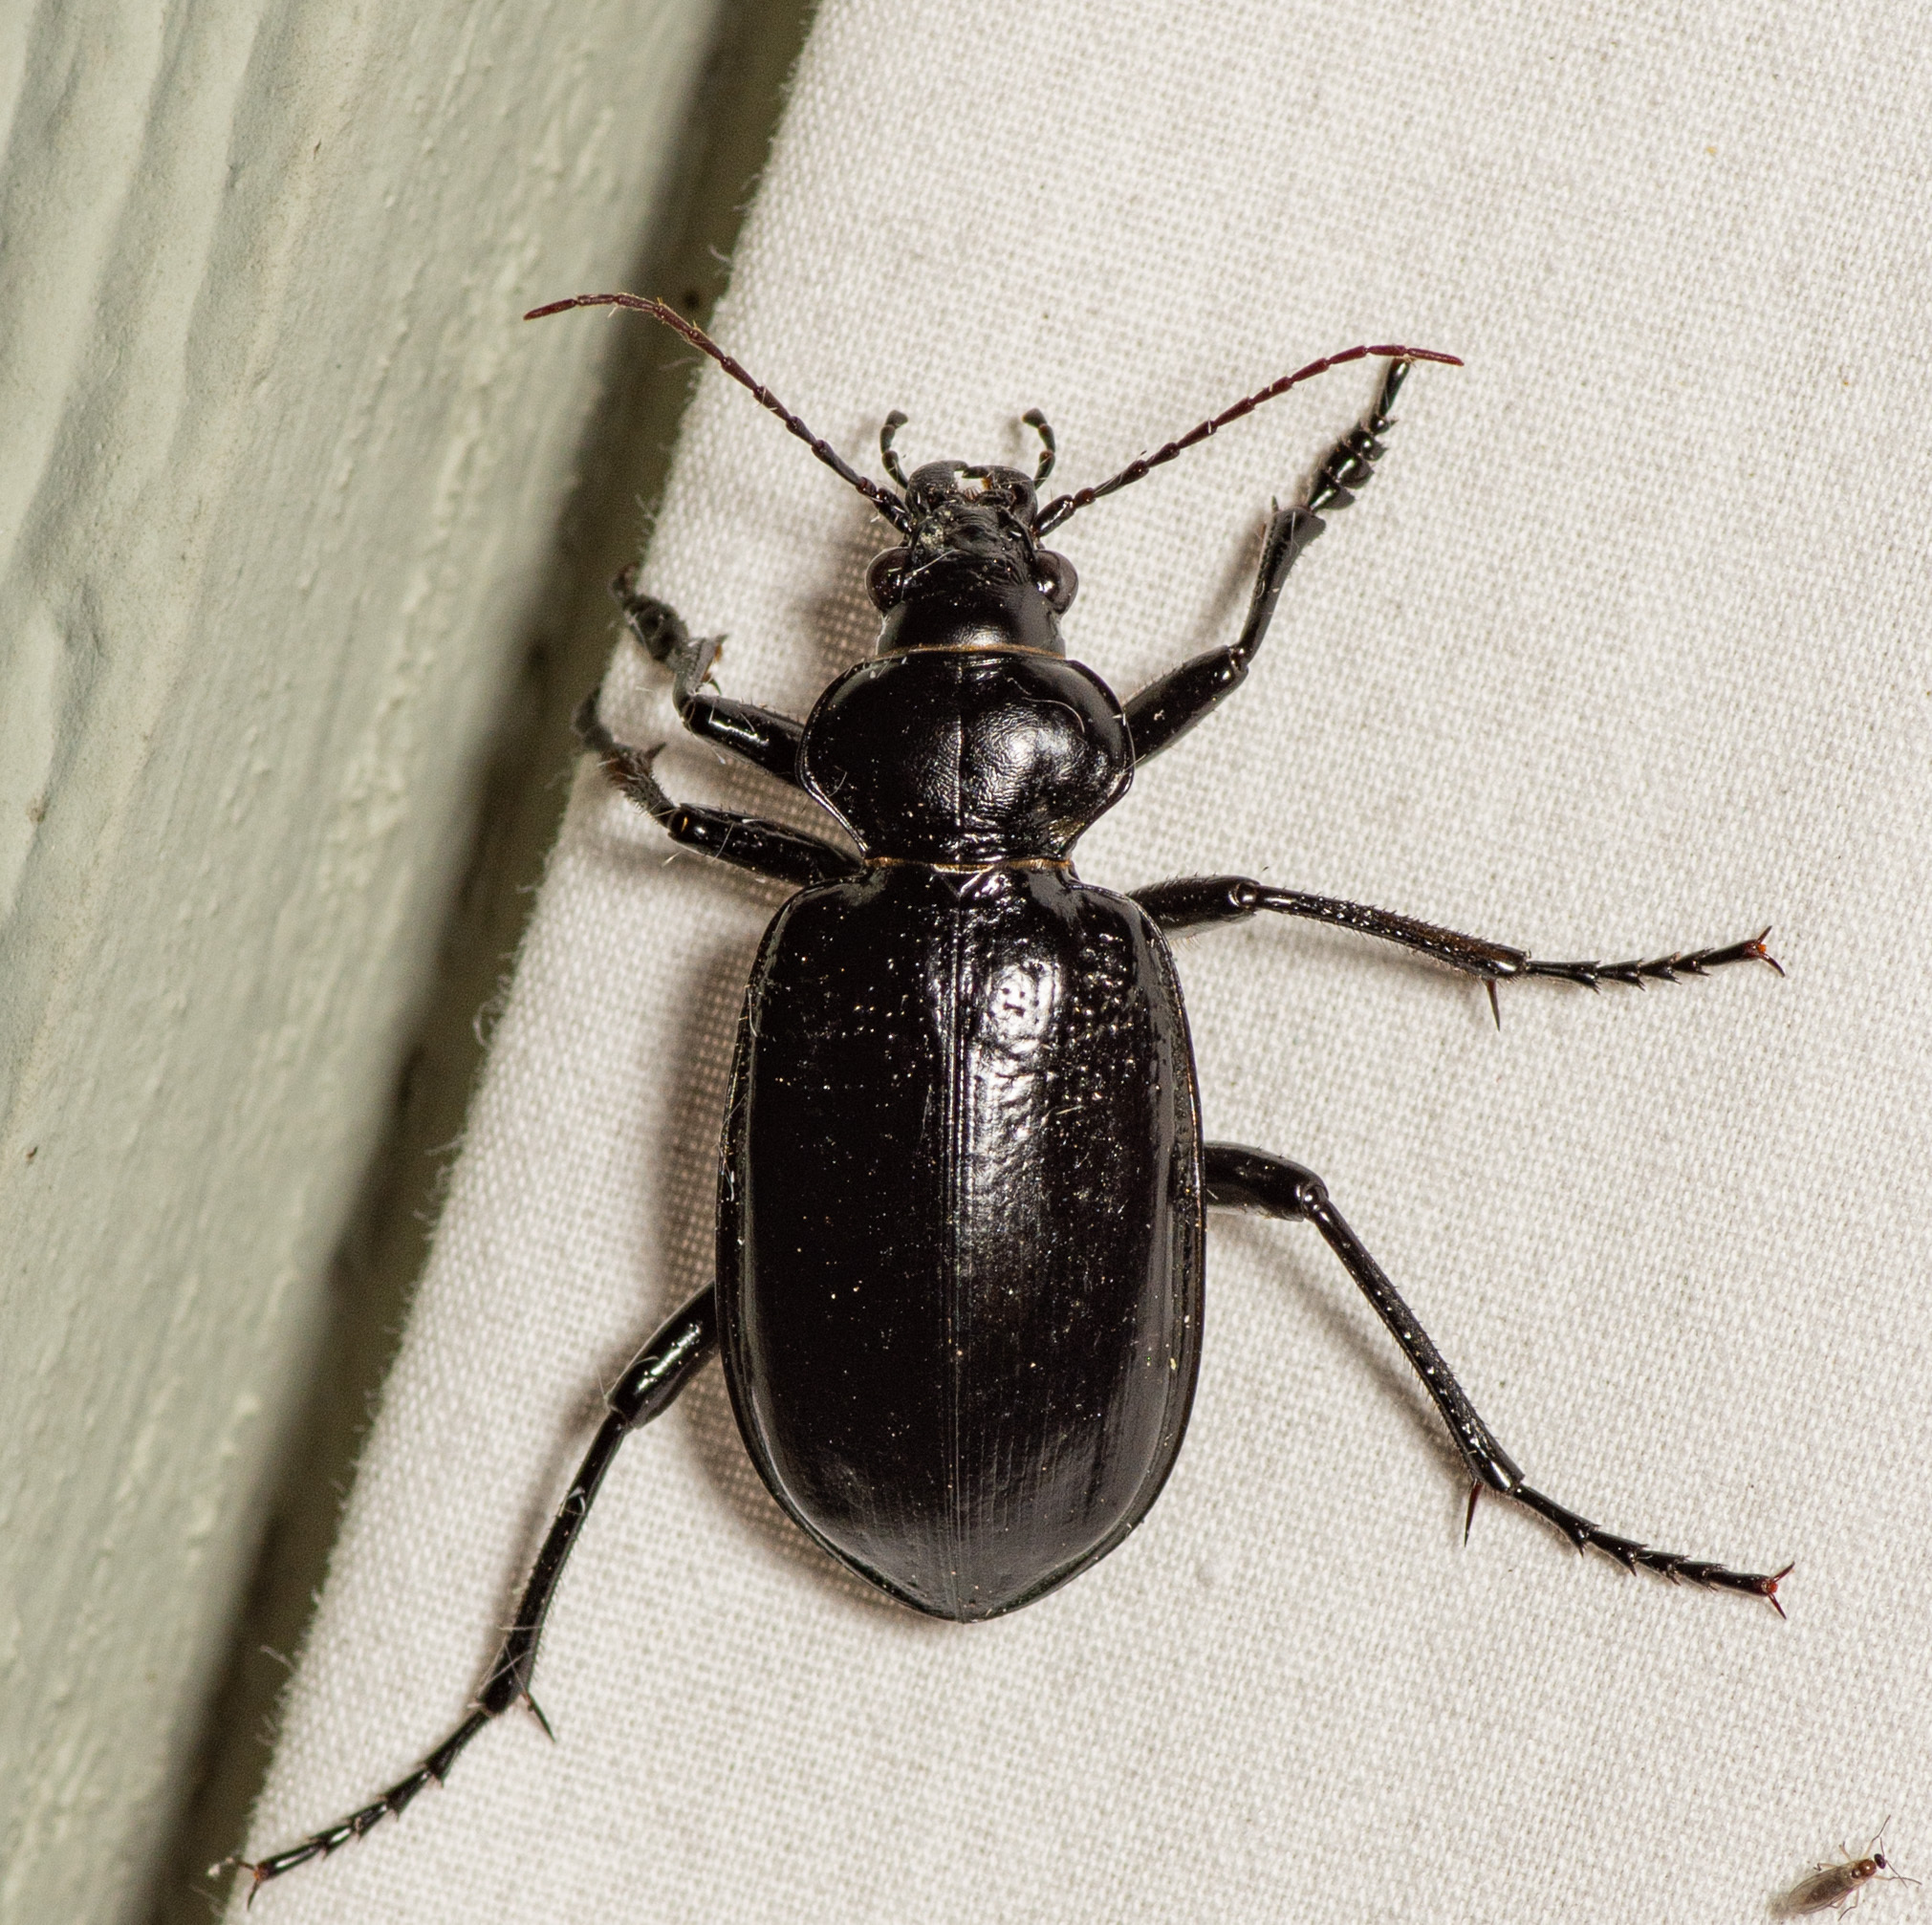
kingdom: Animalia
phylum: Arthropoda
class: Insecta
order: Coleoptera
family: Carabidae
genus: Calosoma
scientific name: Calosoma marginale
